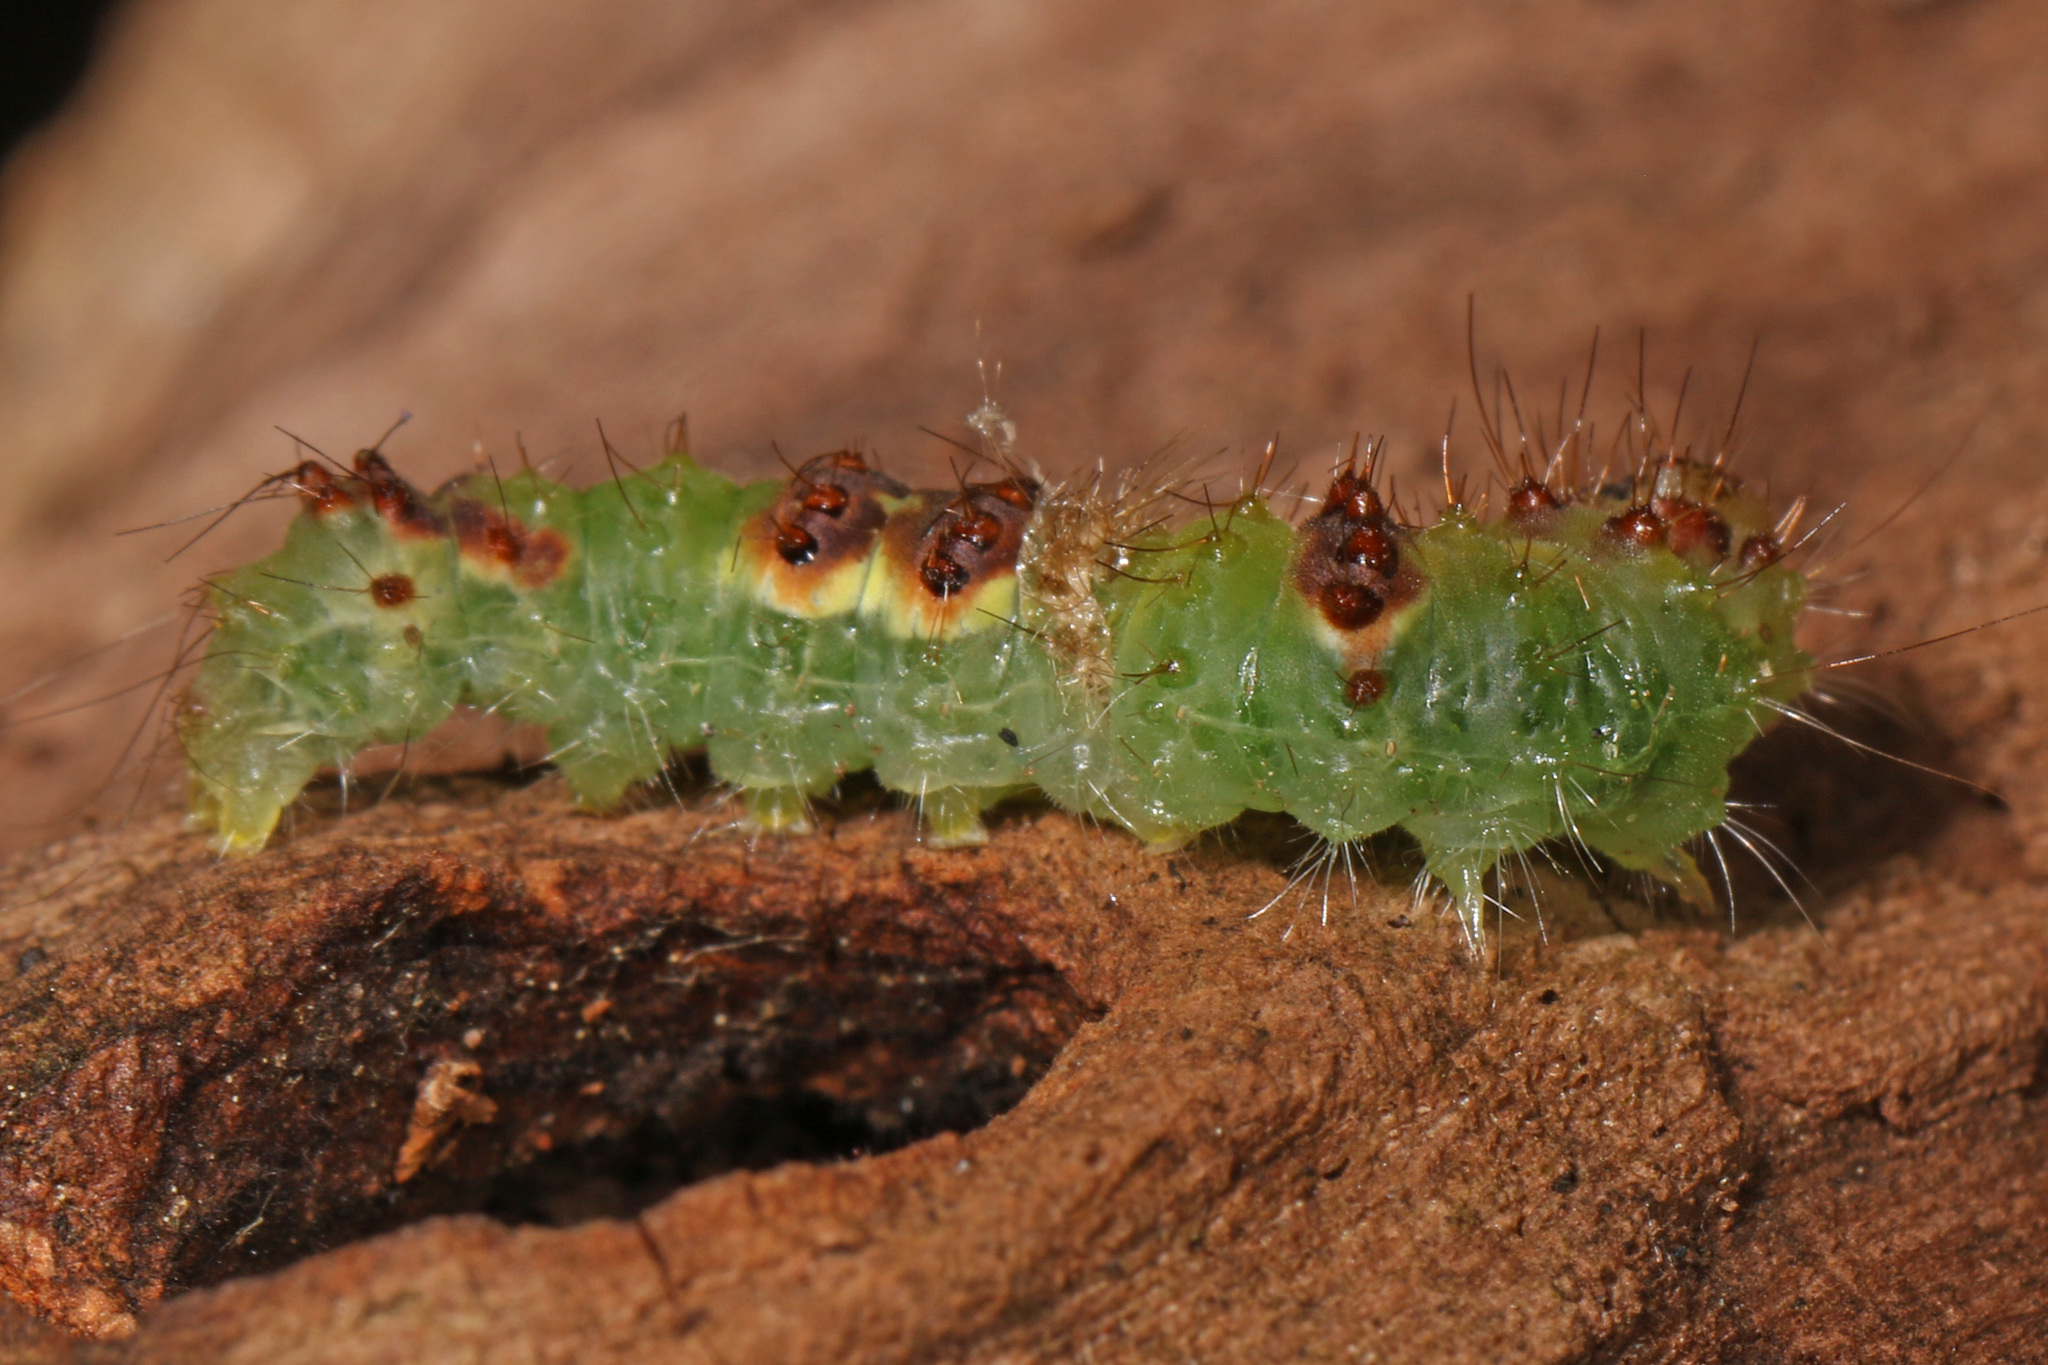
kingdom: Animalia
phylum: Arthropoda
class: Insecta
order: Lepidoptera
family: Noctuidae
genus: Acronicta
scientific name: Acronicta hamamelis
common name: Witch hazel dagger
